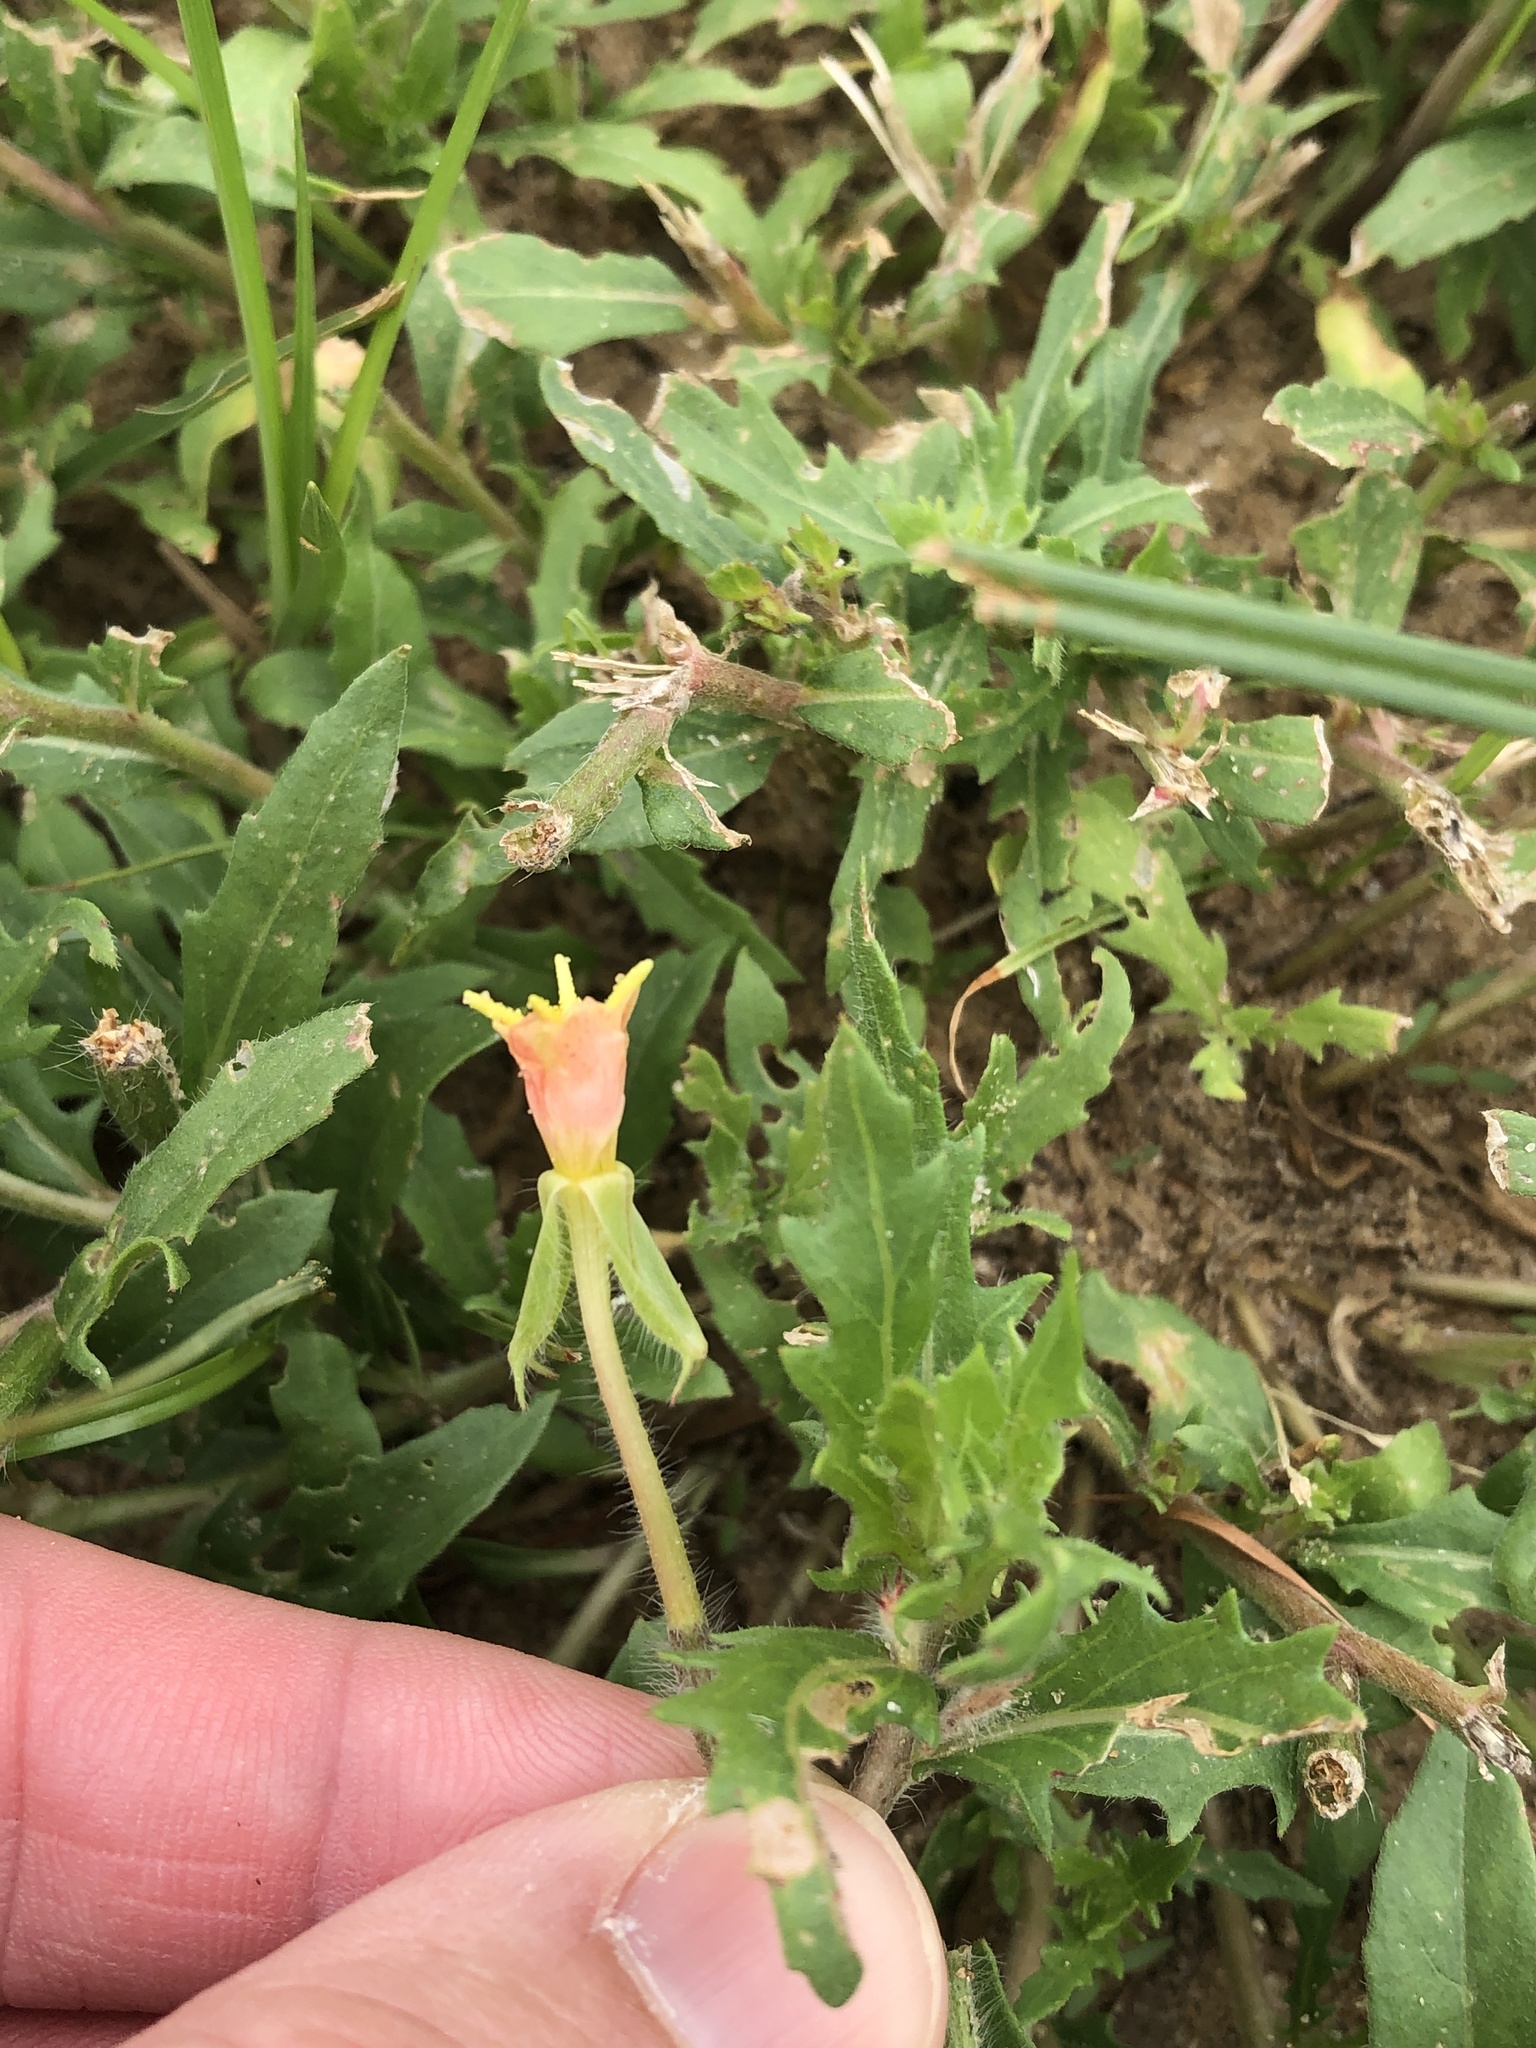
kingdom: Plantae
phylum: Tracheophyta
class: Magnoliopsida
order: Myrtales
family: Onagraceae
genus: Oenothera
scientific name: Oenothera laciniata
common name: Cut-leaved evening-primrose
